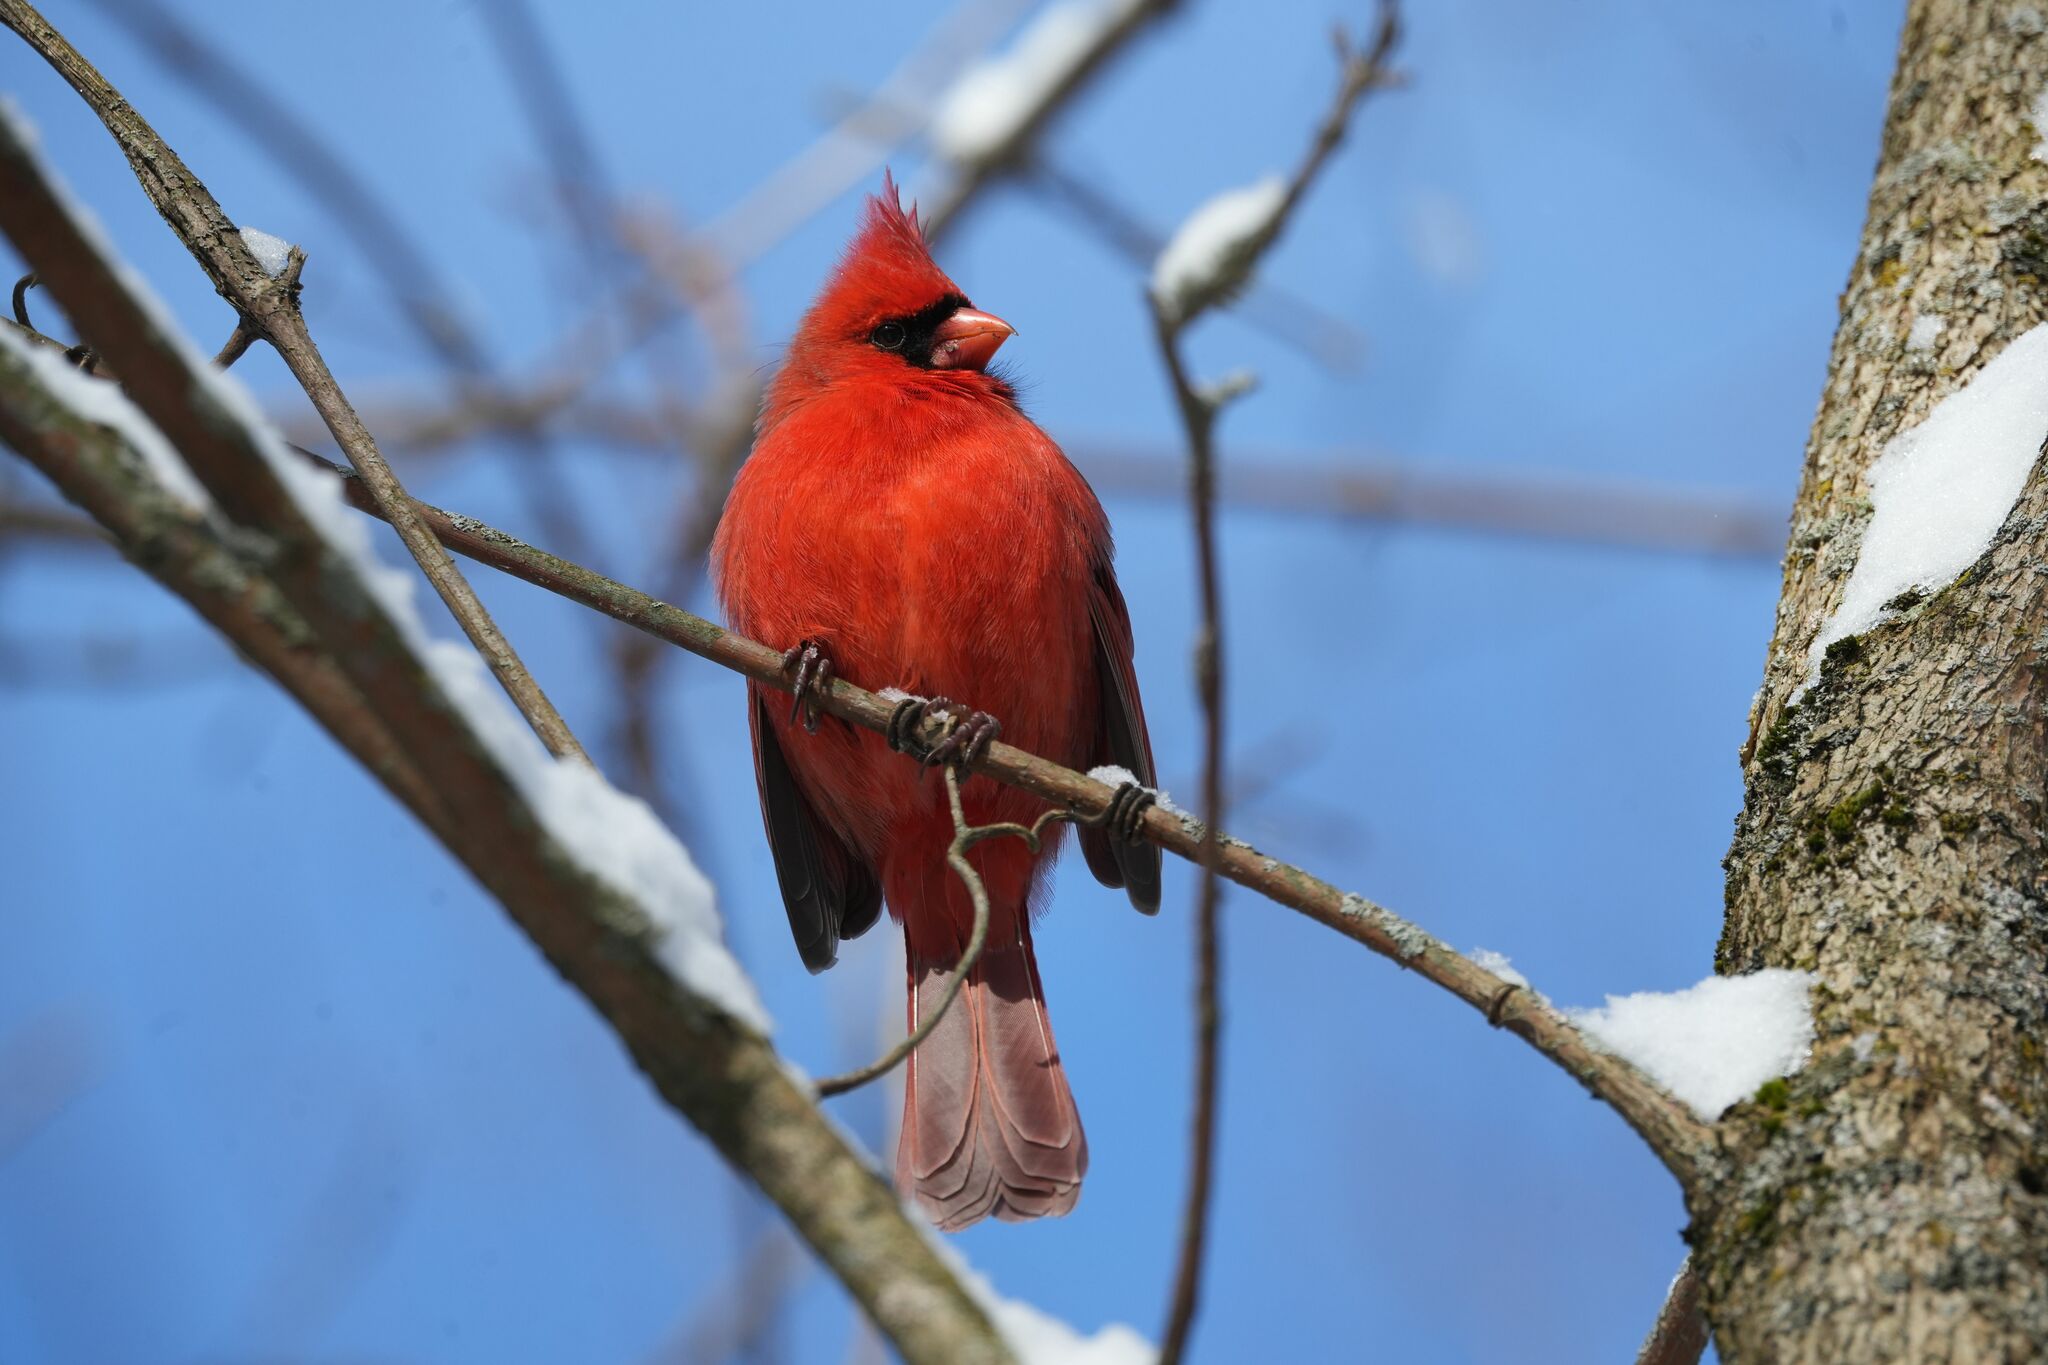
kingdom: Animalia
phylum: Chordata
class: Aves
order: Passeriformes
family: Cardinalidae
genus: Cardinalis
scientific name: Cardinalis cardinalis
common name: Northern cardinal
